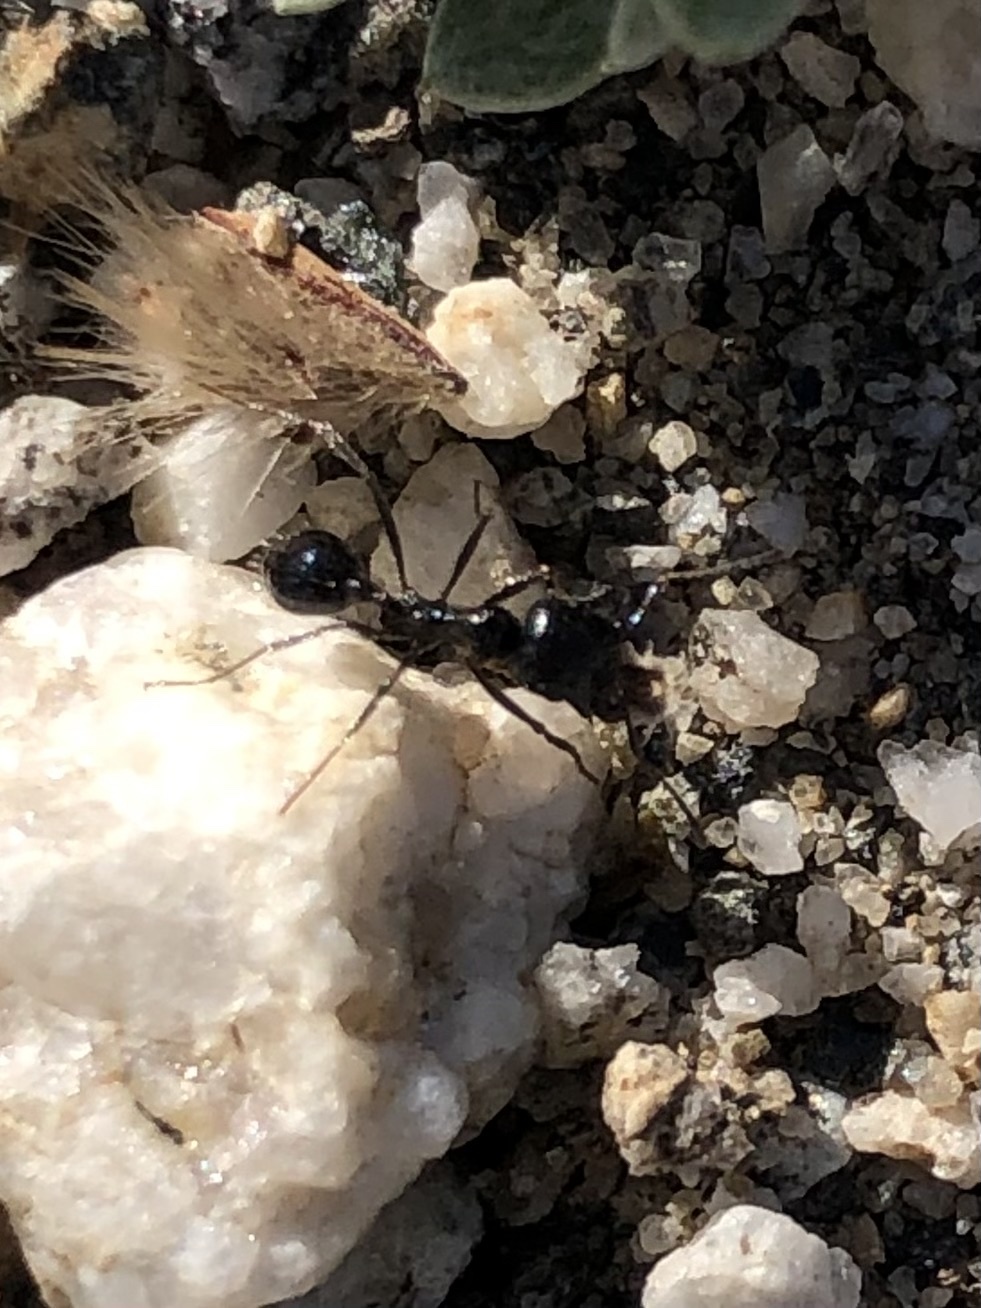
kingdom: Animalia
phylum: Arthropoda
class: Insecta
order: Hymenoptera
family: Formicidae
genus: Messor
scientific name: Messor pergandei
